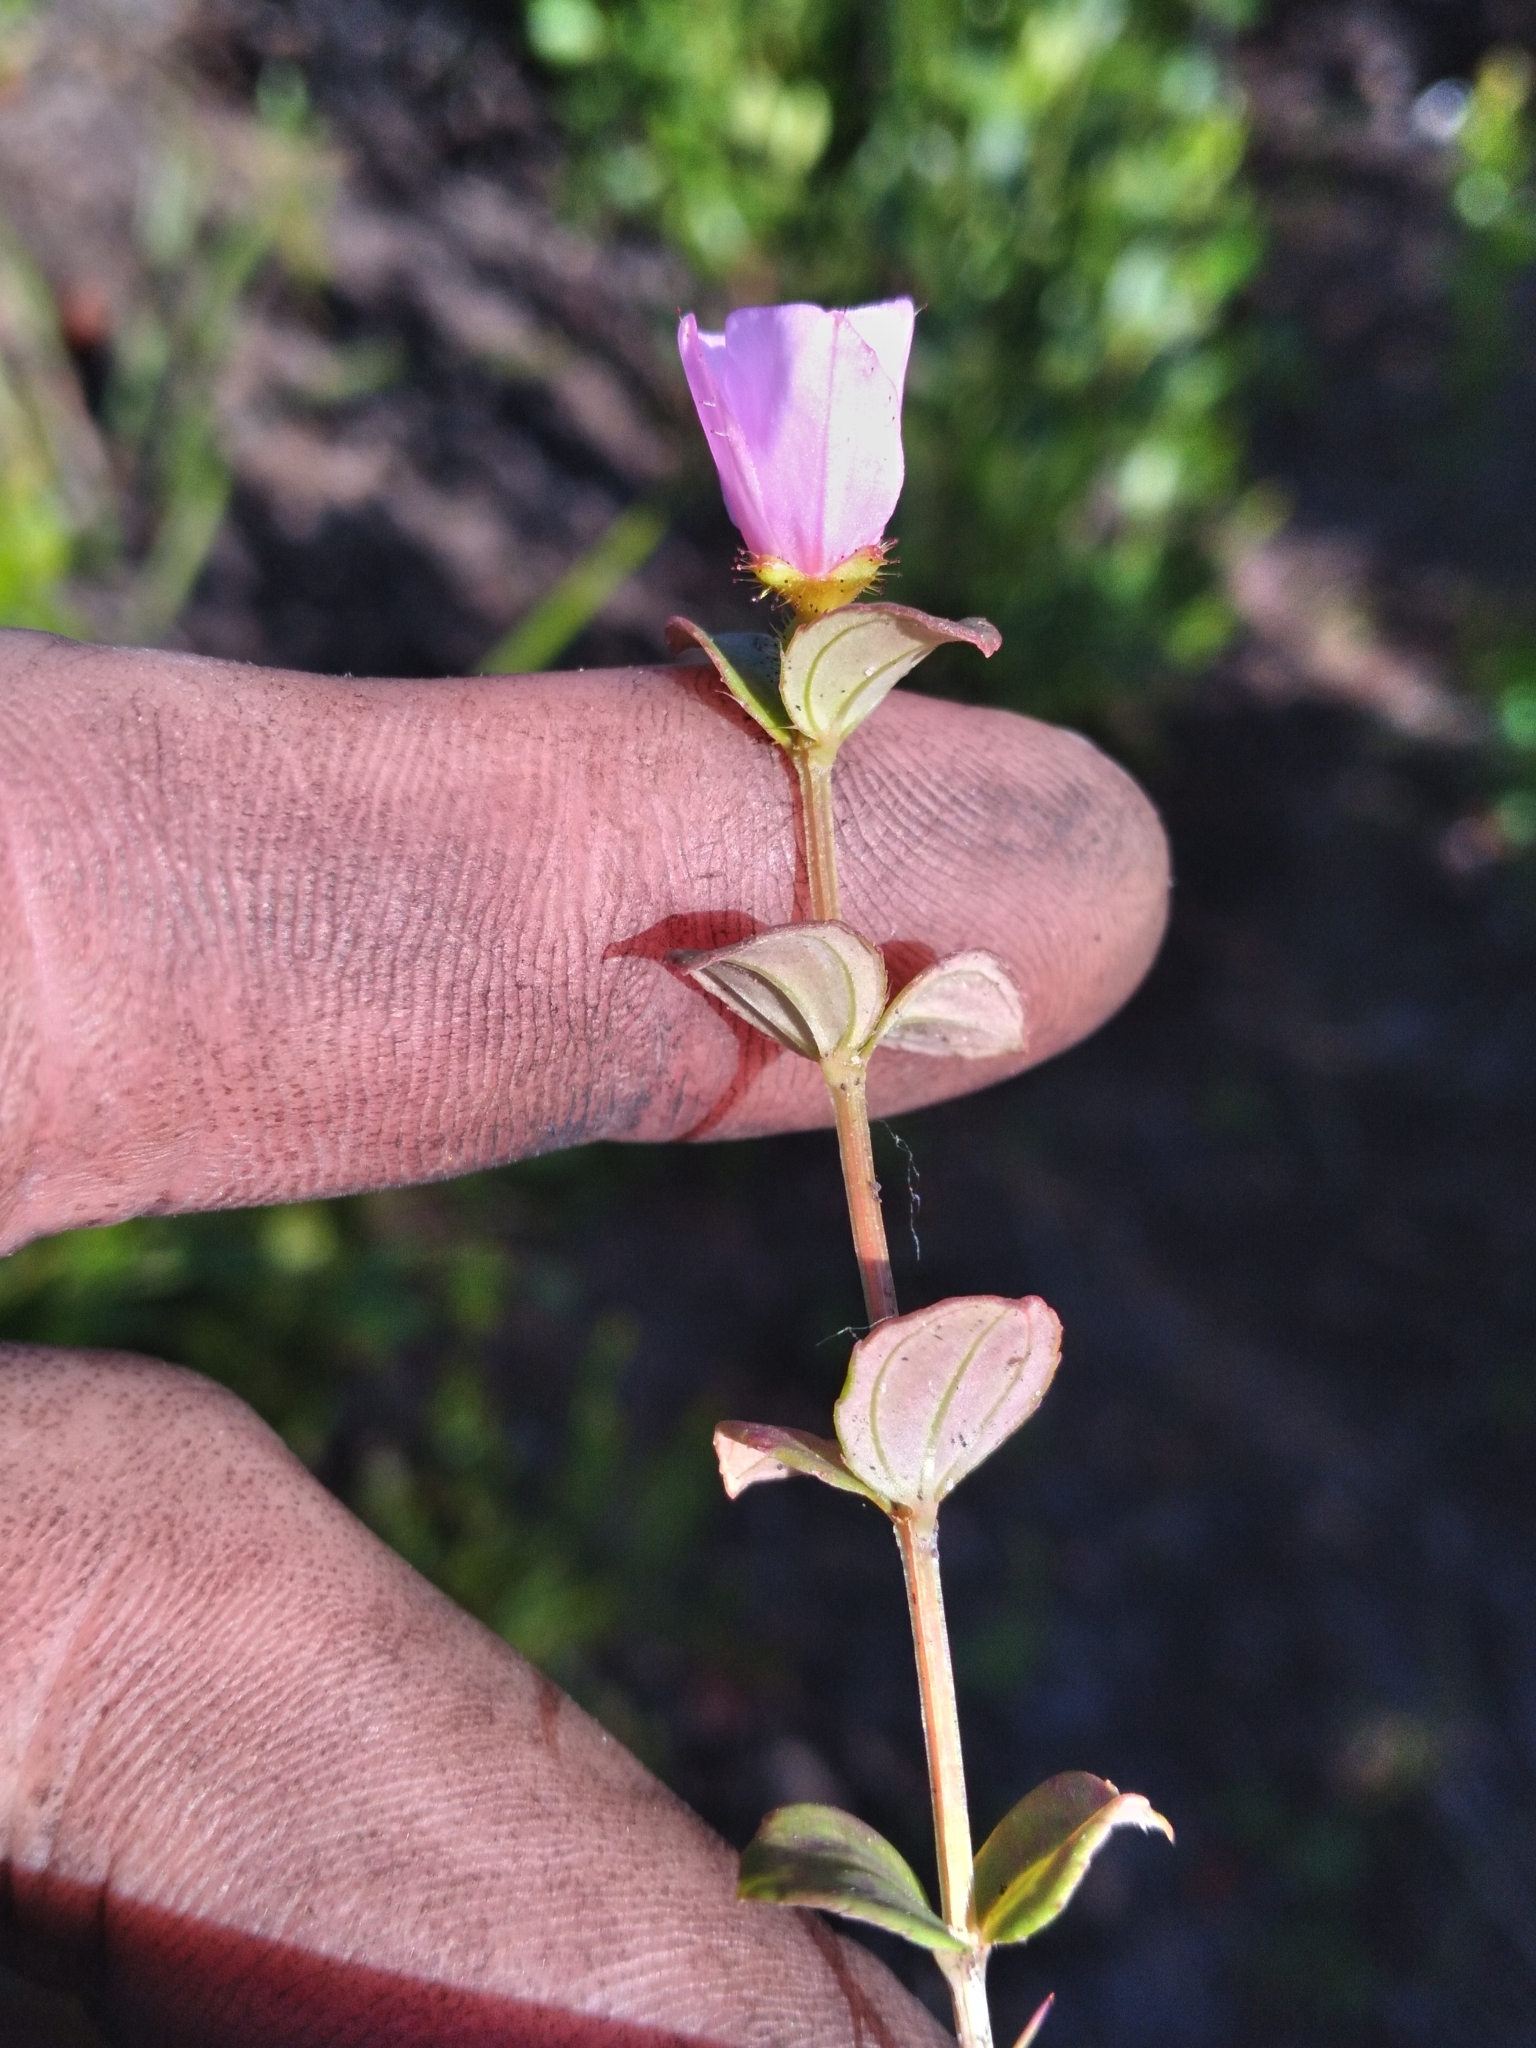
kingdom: Plantae
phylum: Tracheophyta
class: Magnoliopsida
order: Myrtales
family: Melastomataceae
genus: Rhexia
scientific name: Rhexia nuttallii
